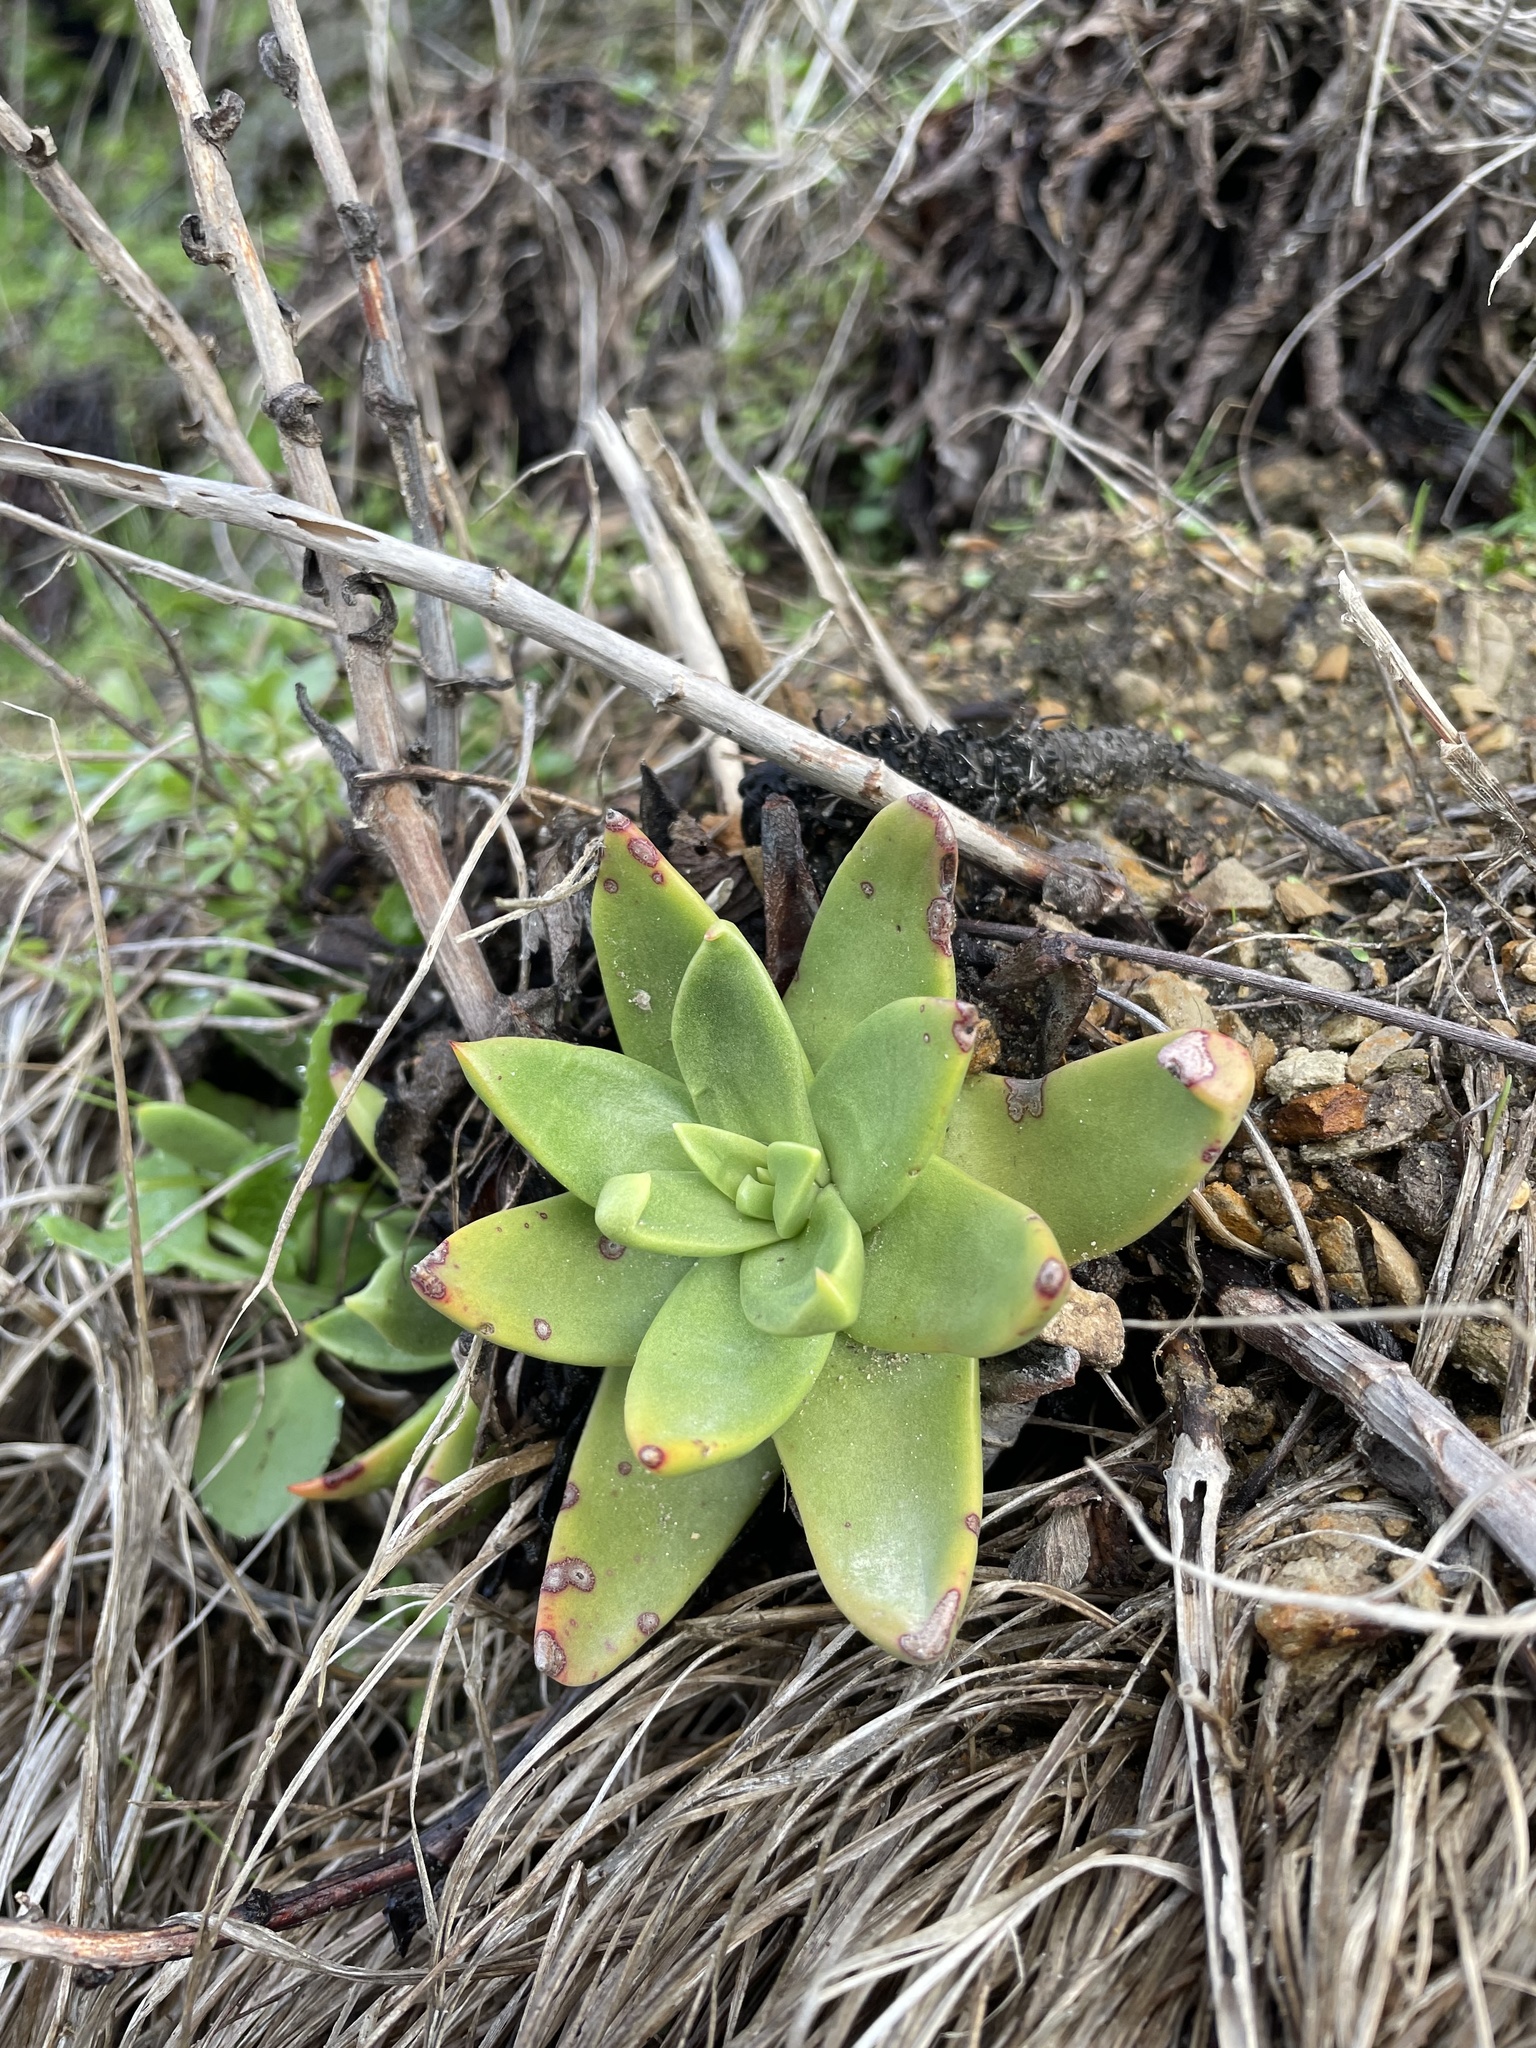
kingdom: Plantae
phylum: Tracheophyta
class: Magnoliopsida
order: Saxifragales
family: Crassulaceae
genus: Dudleya
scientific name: Dudleya farinosa
